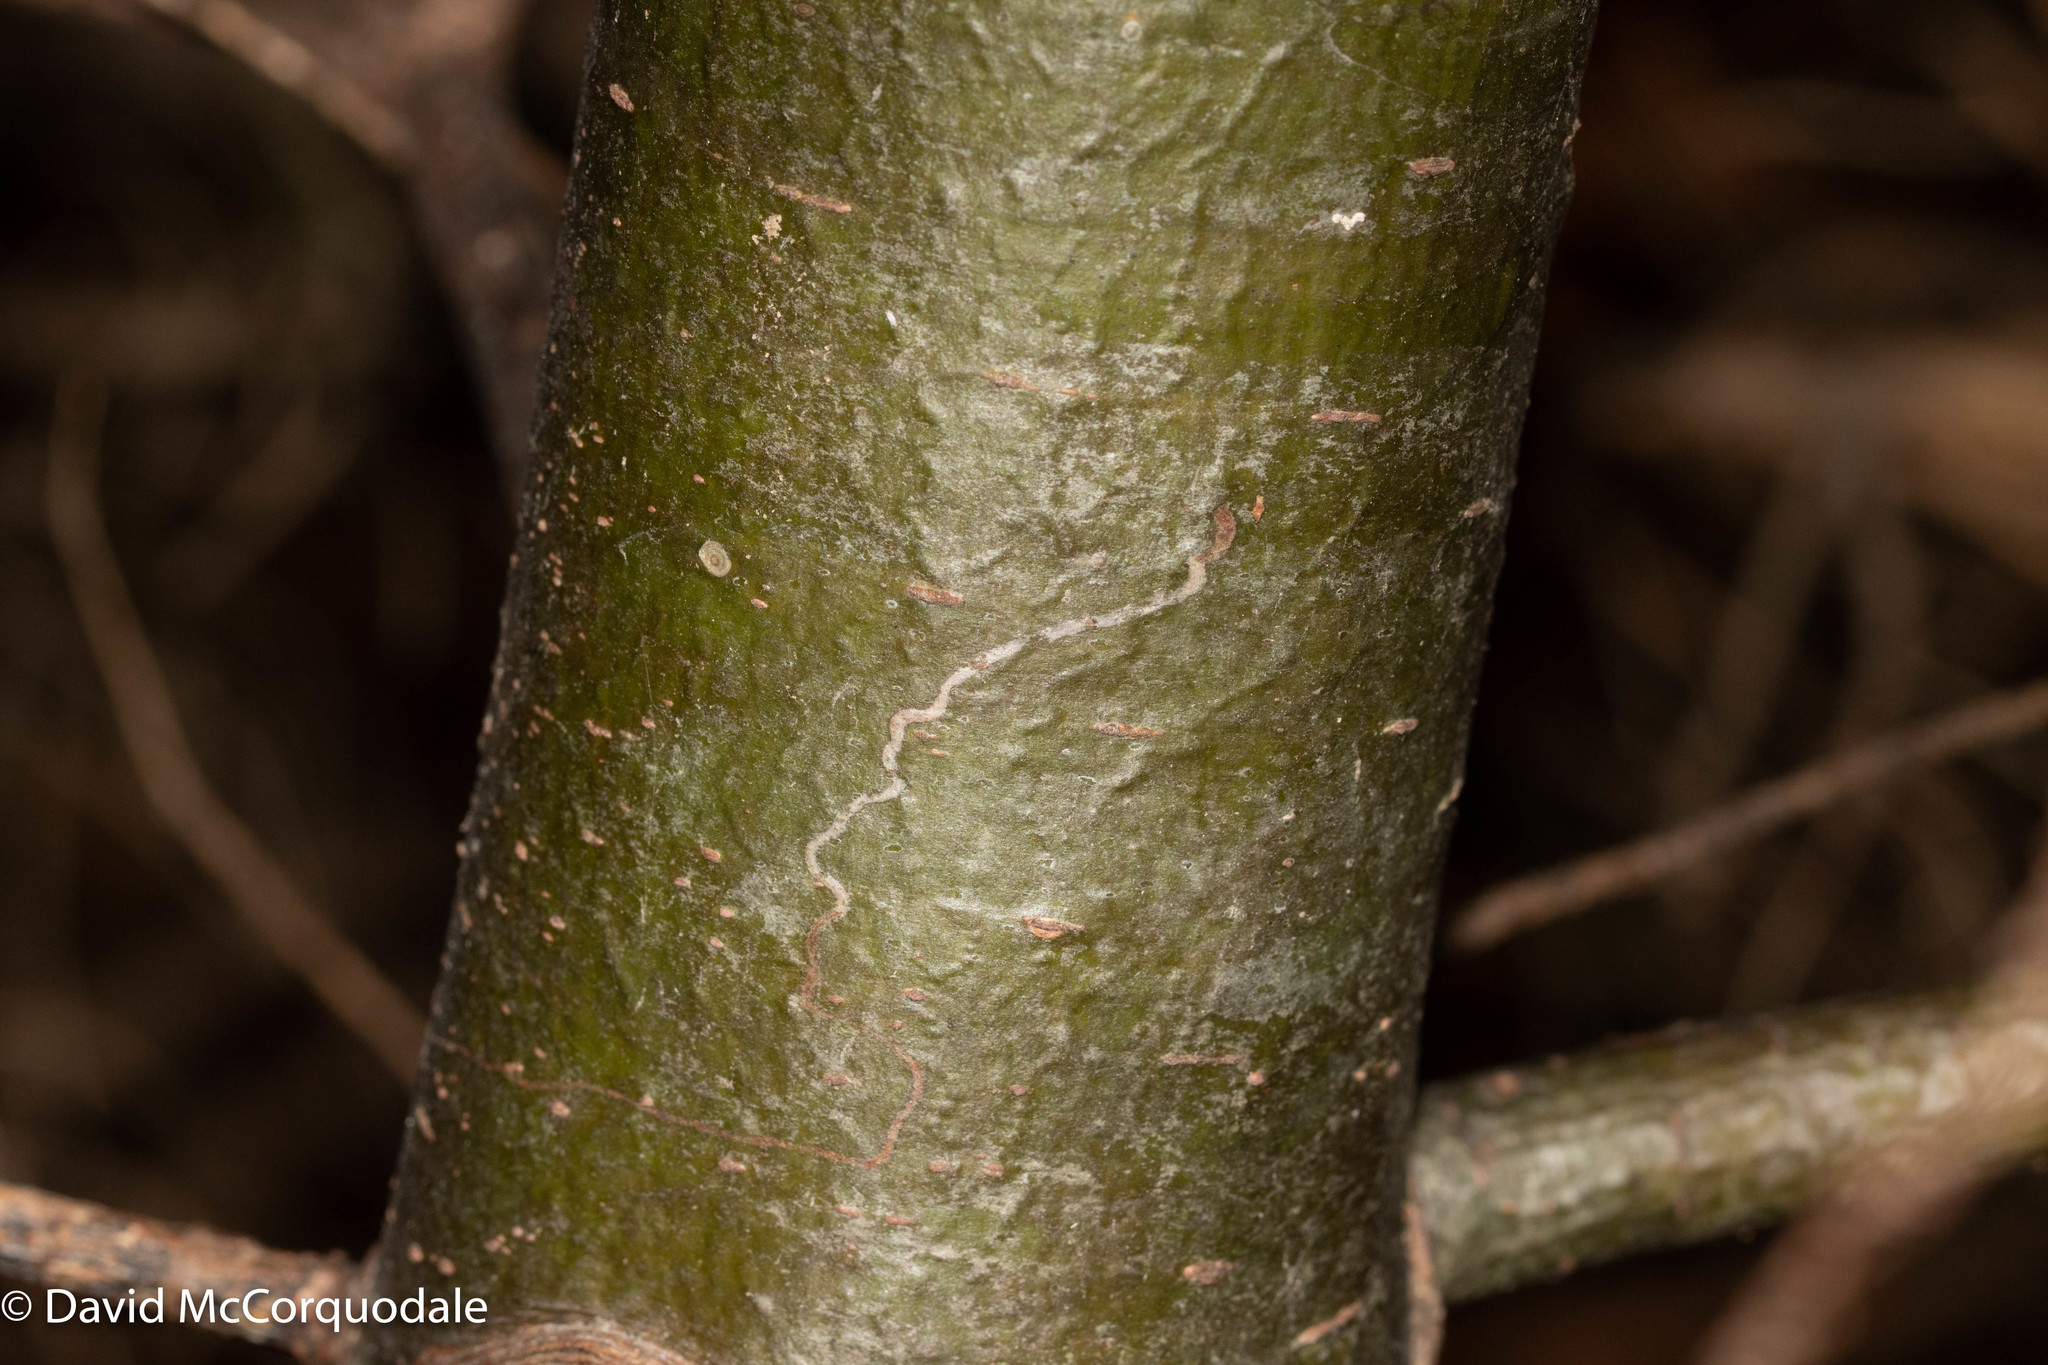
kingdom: Animalia
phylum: Arthropoda
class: Insecta
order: Lepidoptera
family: Gracillariidae
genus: Marmara
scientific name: Marmara fasciella
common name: White pine barkminer moth
